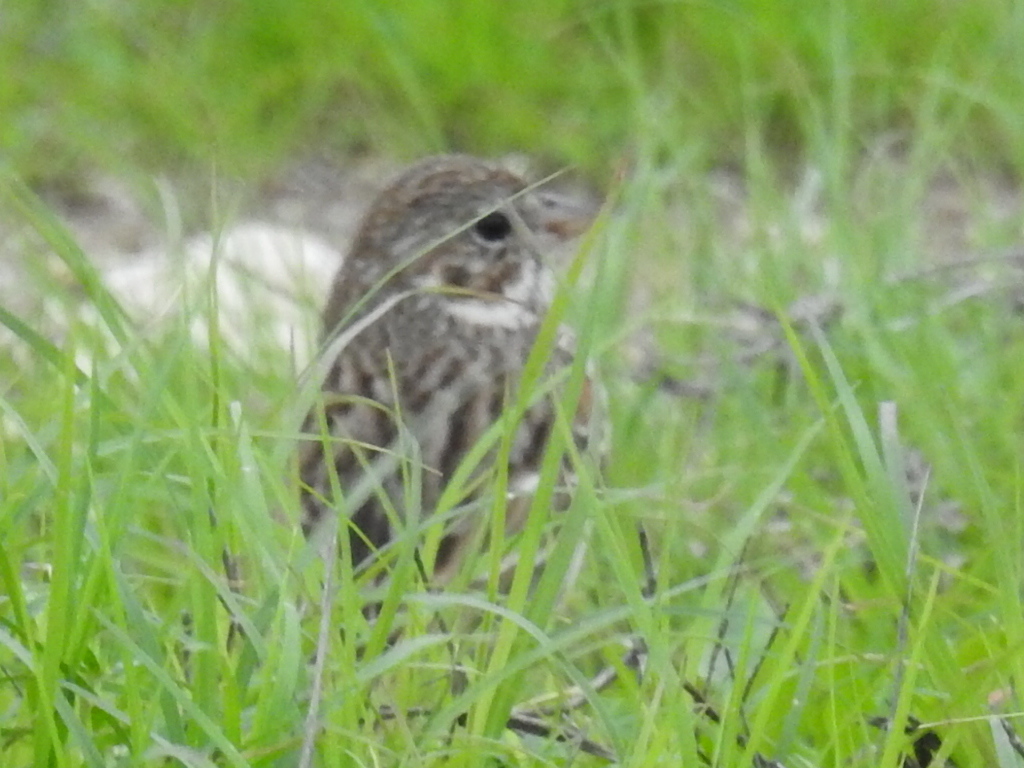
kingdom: Animalia
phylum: Chordata
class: Aves
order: Passeriformes
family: Passerellidae
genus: Pooecetes
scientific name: Pooecetes gramineus
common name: Vesper sparrow
